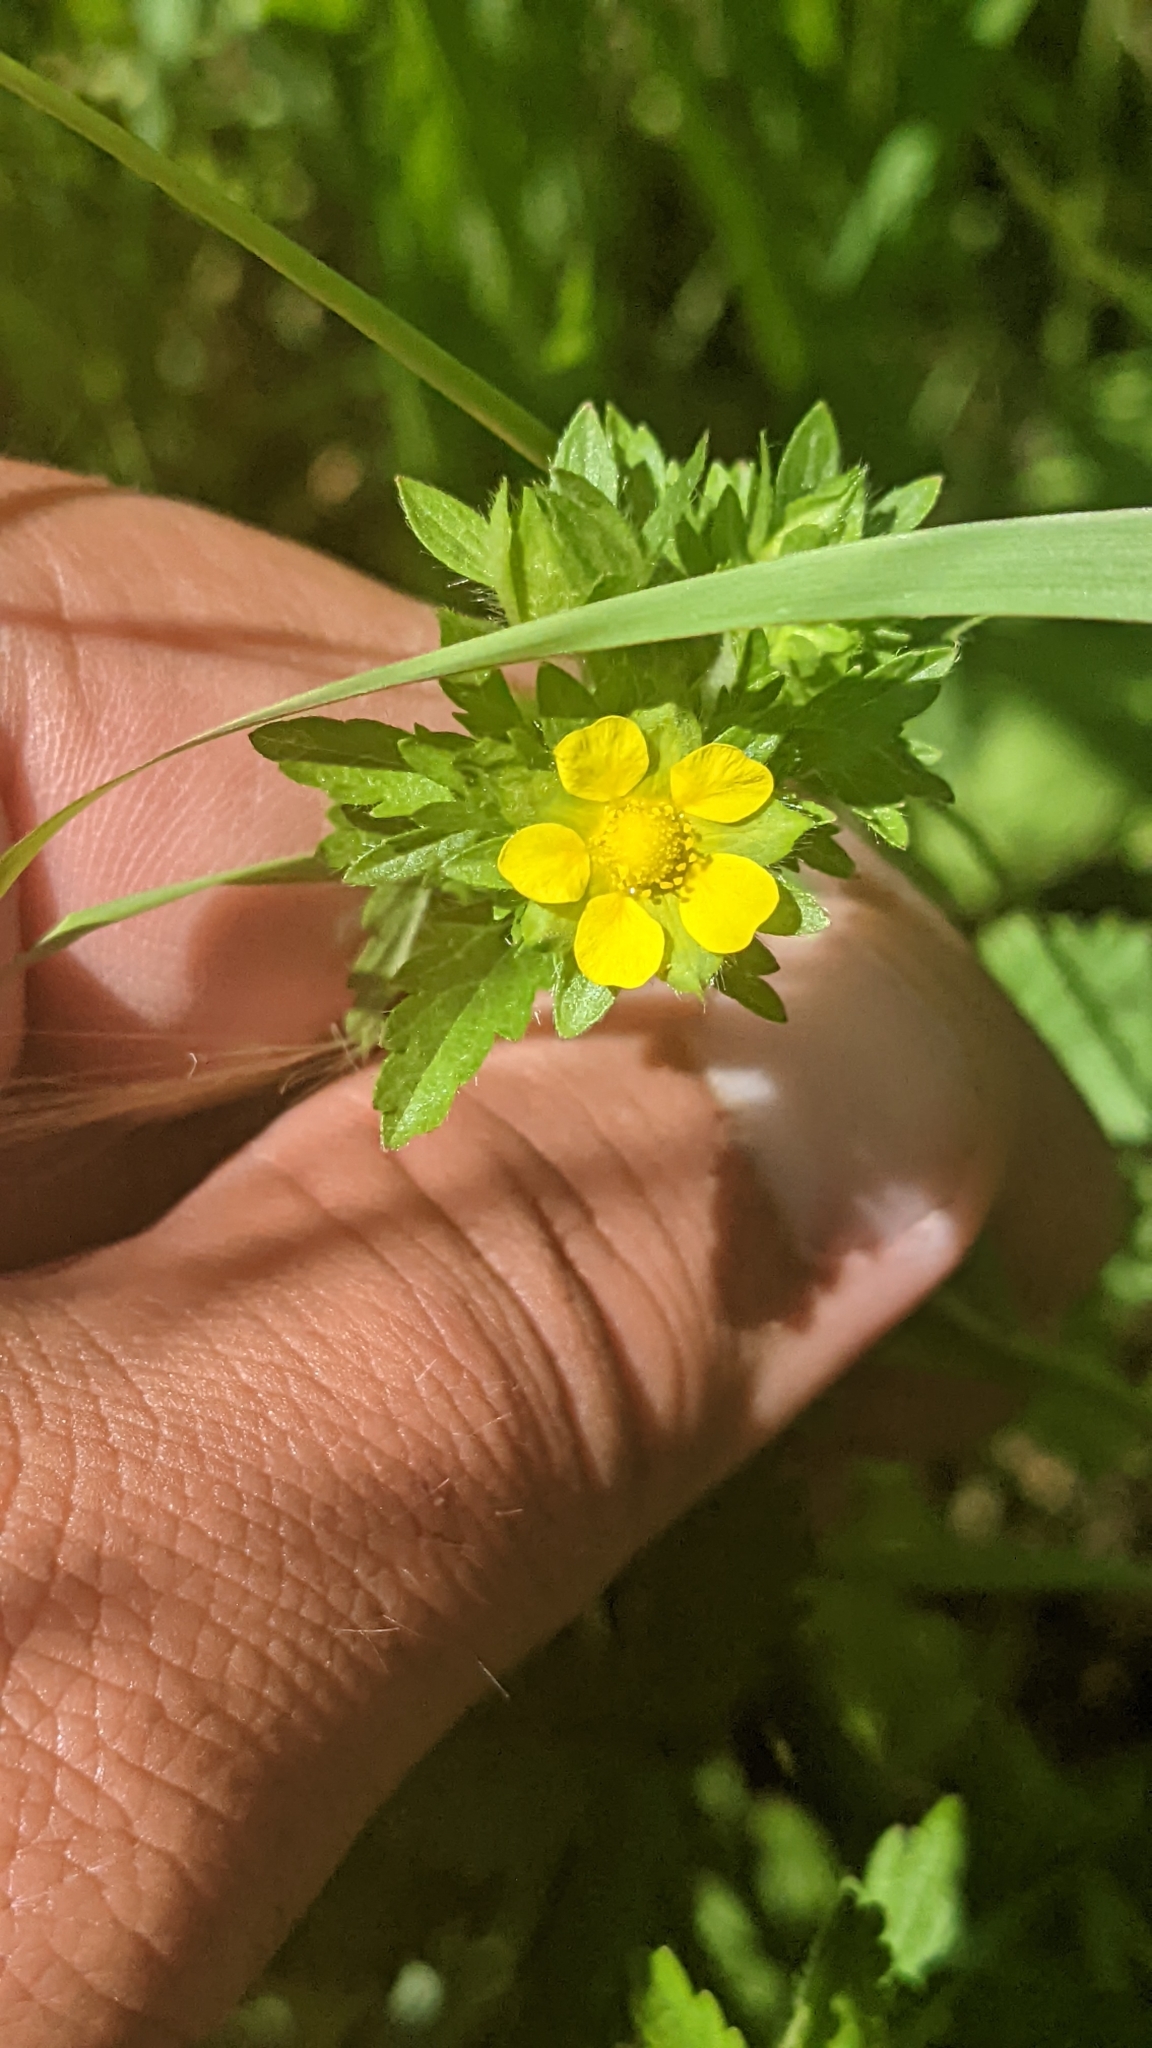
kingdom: Plantae
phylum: Tracheophyta
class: Magnoliopsida
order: Rosales
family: Rosaceae
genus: Potentilla
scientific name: Potentilla norvegica
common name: Ternate-leaved cinquefoil
